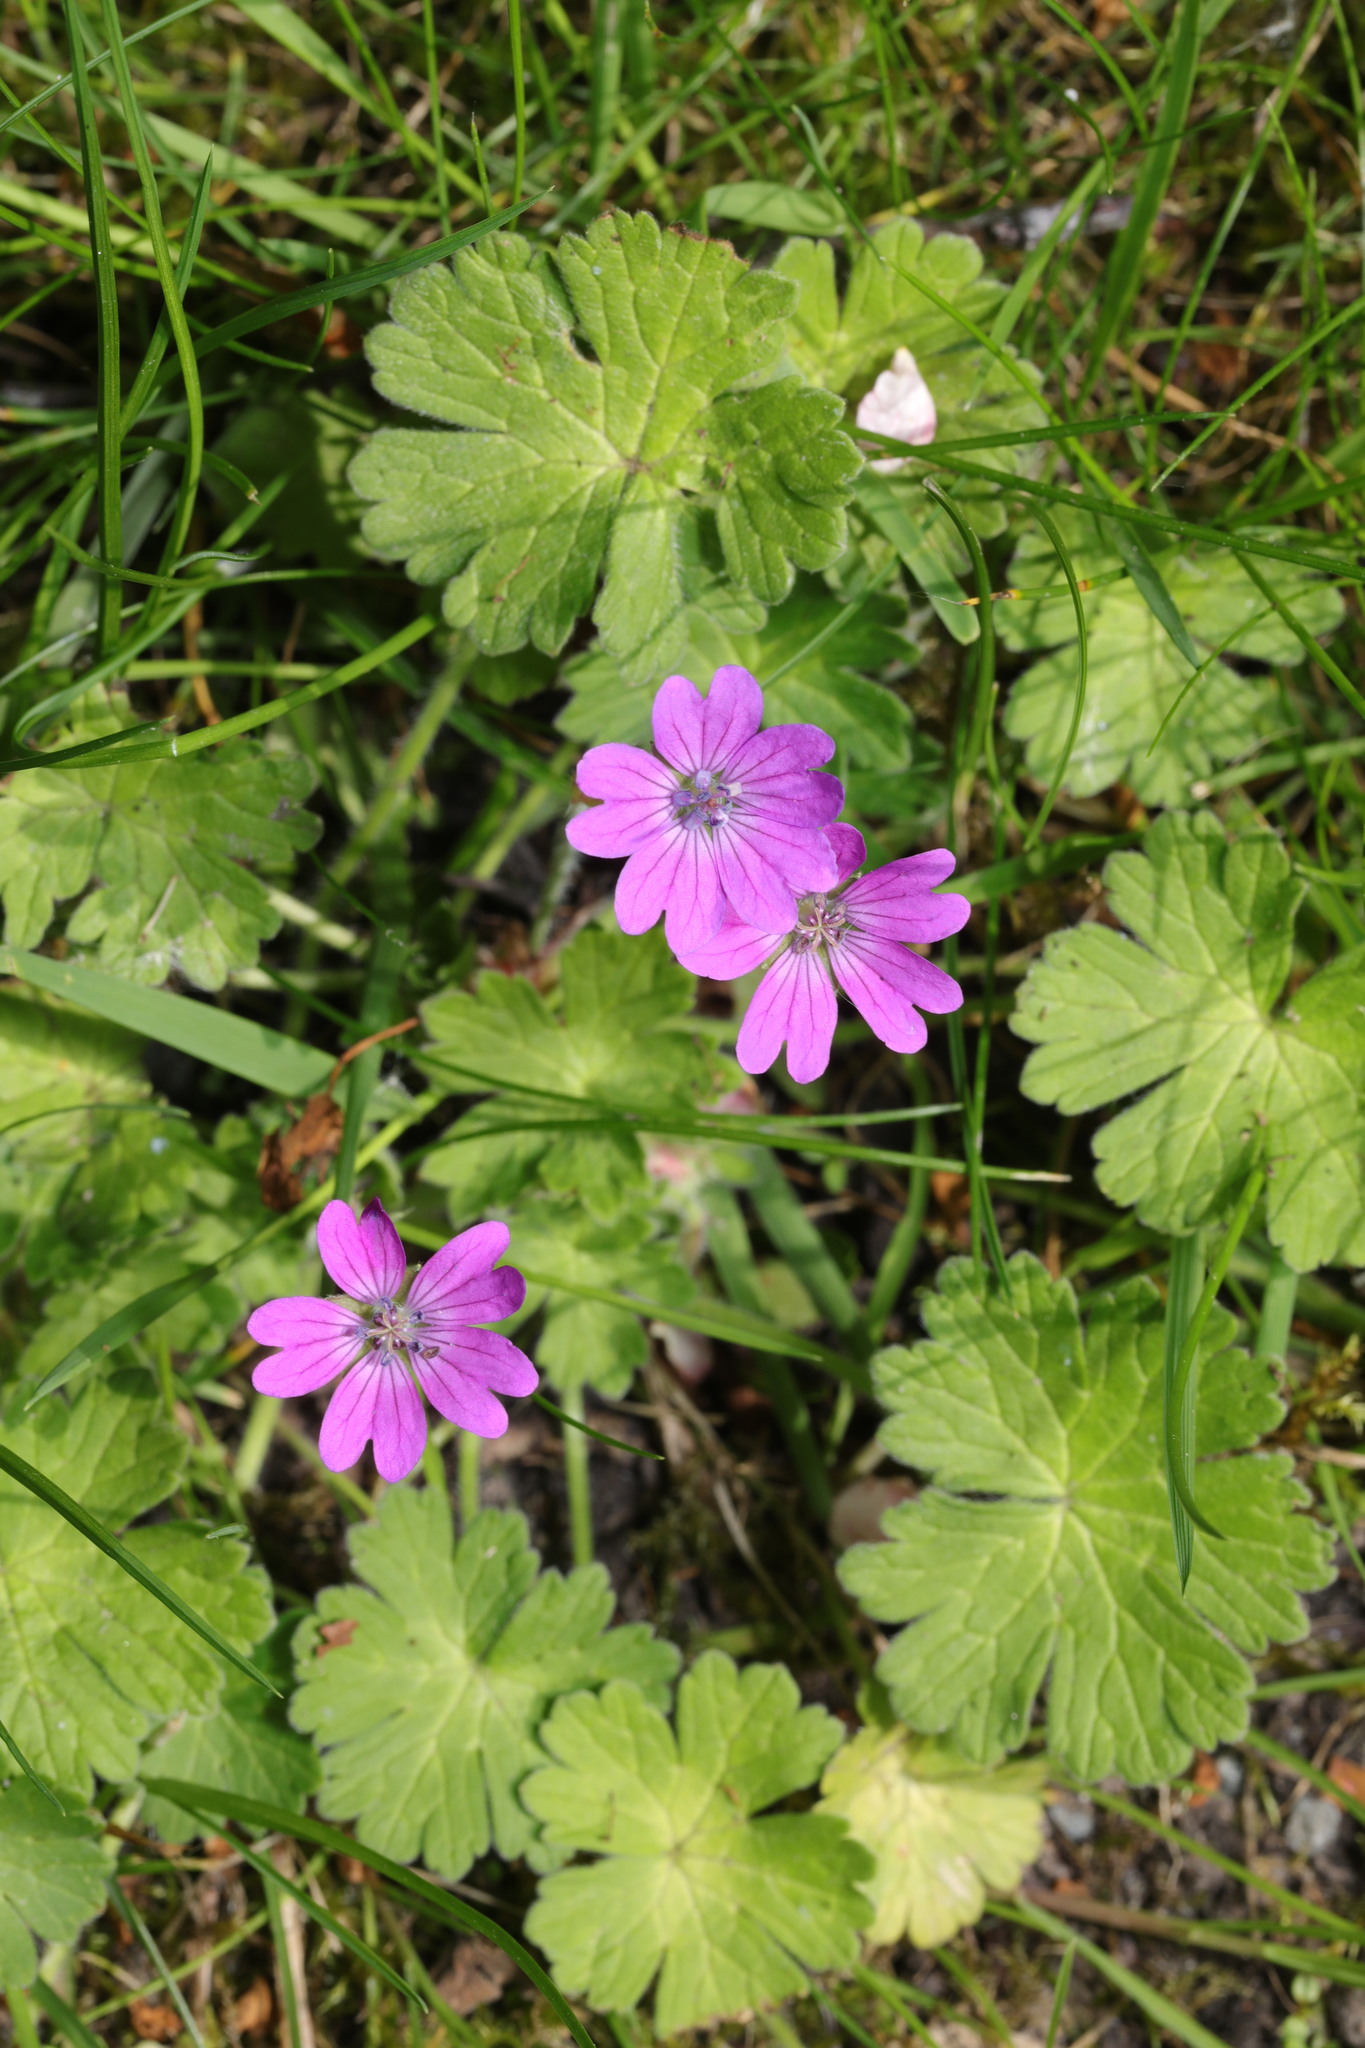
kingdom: Plantae
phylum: Tracheophyta
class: Magnoliopsida
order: Geraniales
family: Geraniaceae
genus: Geranium
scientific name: Geranium pyrenaicum
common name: Hedgerow crane's-bill
